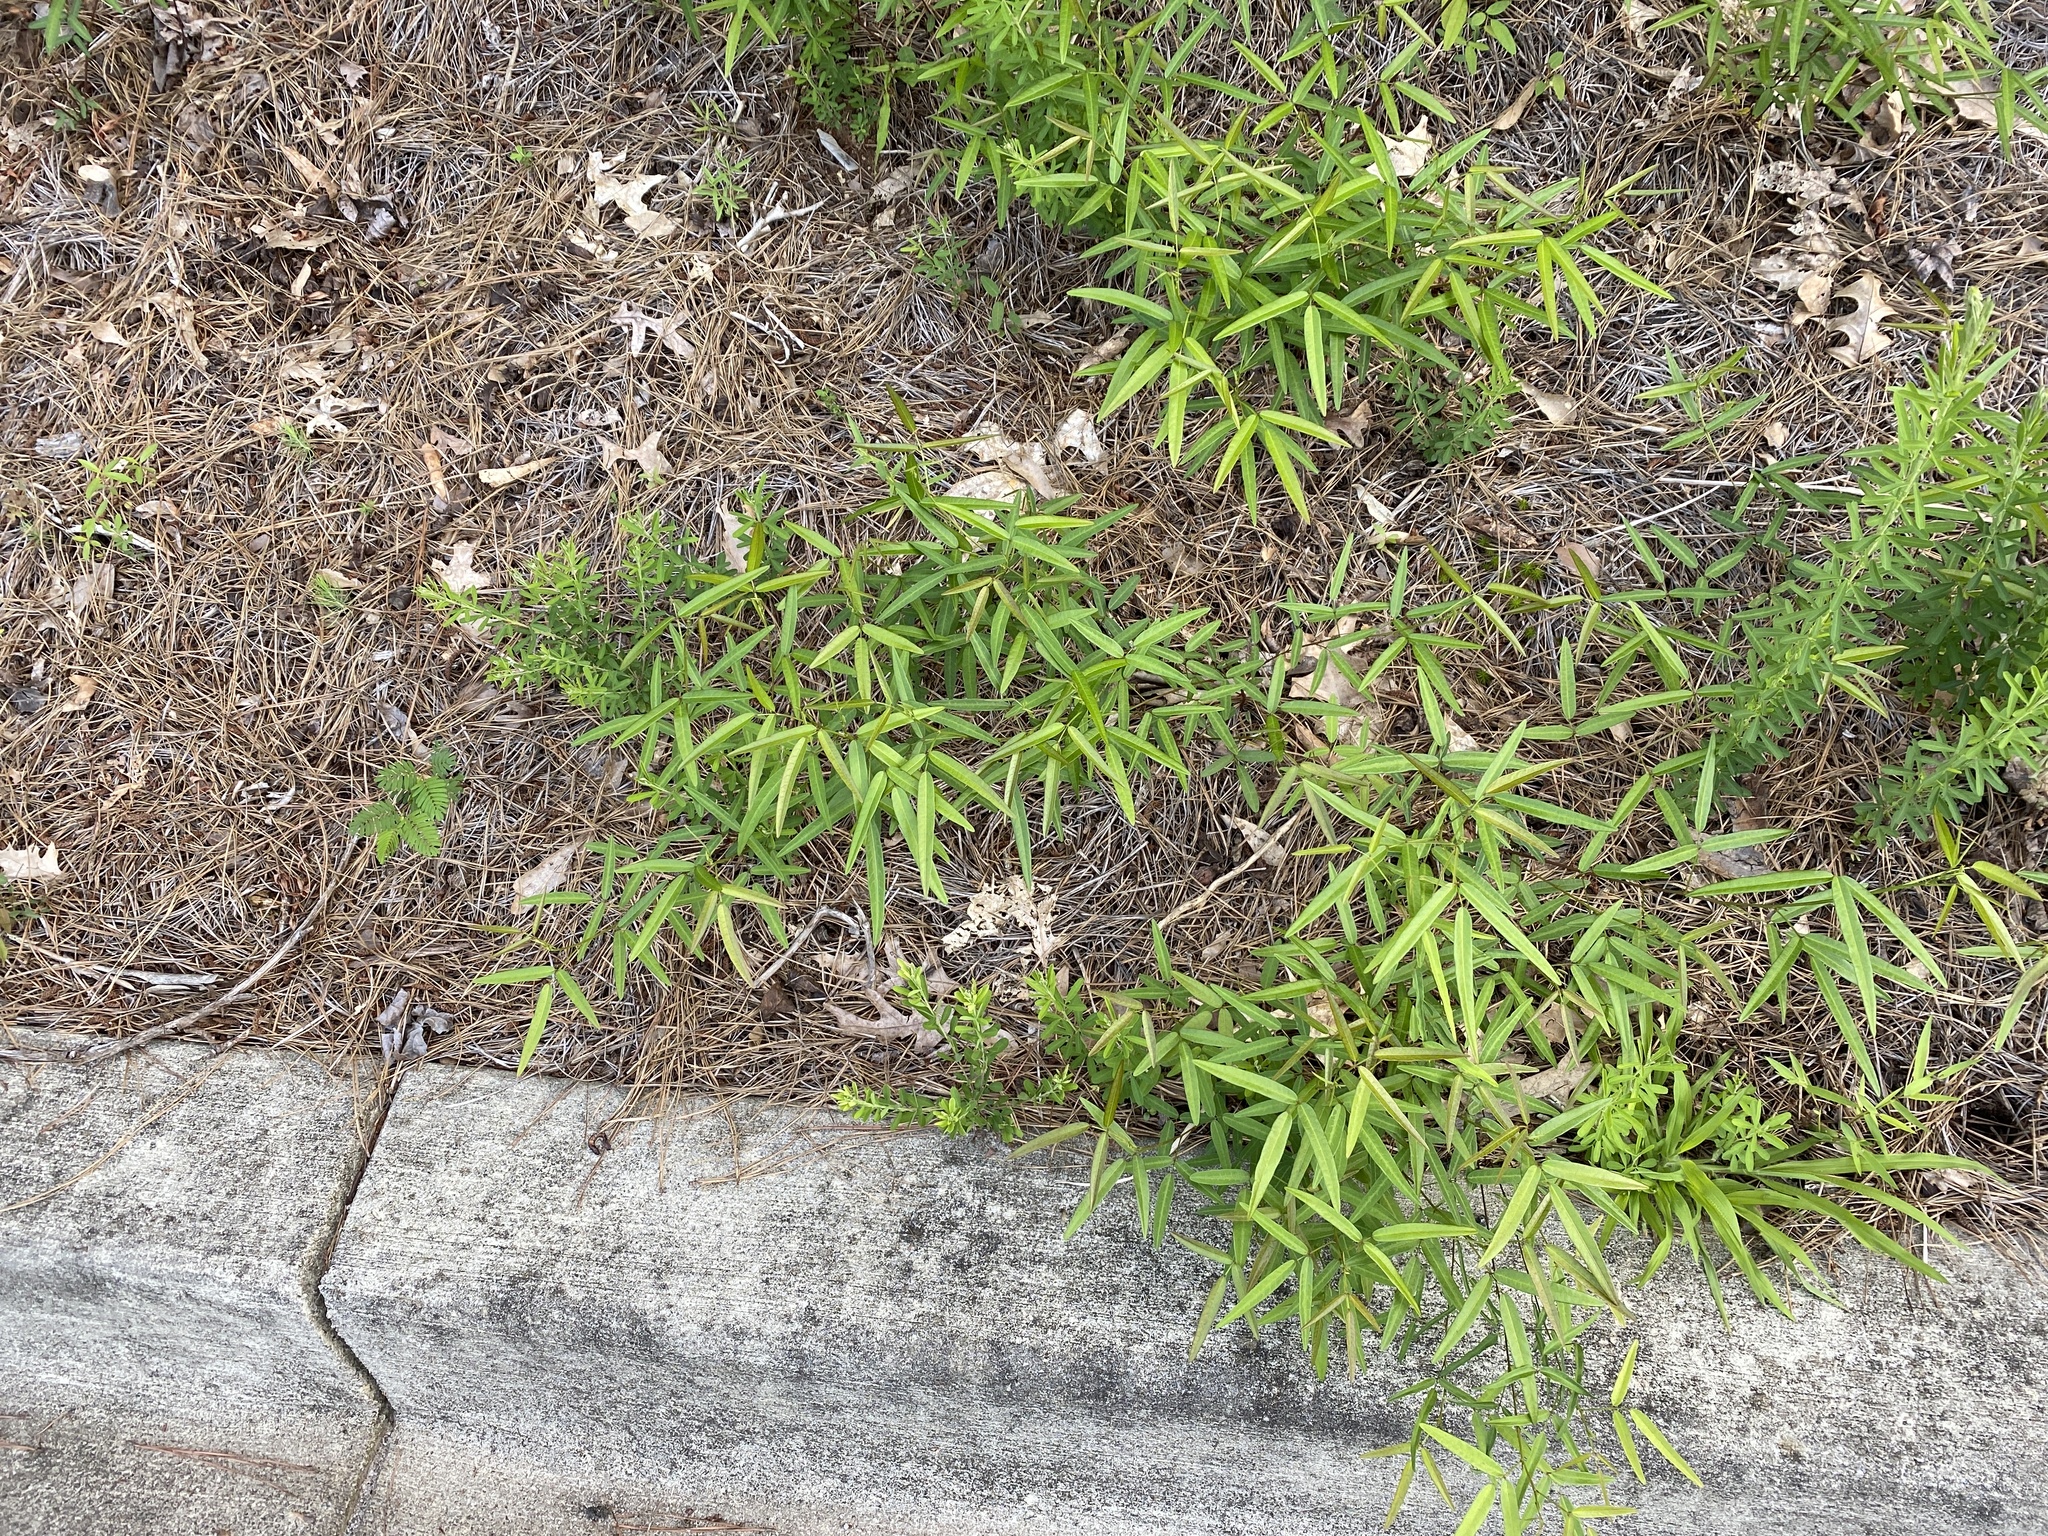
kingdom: Plantae
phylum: Tracheophyta
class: Magnoliopsida
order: Fabales
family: Fabaceae
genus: Desmodium
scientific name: Desmodium paniculatum
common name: Panicled tick-clover
